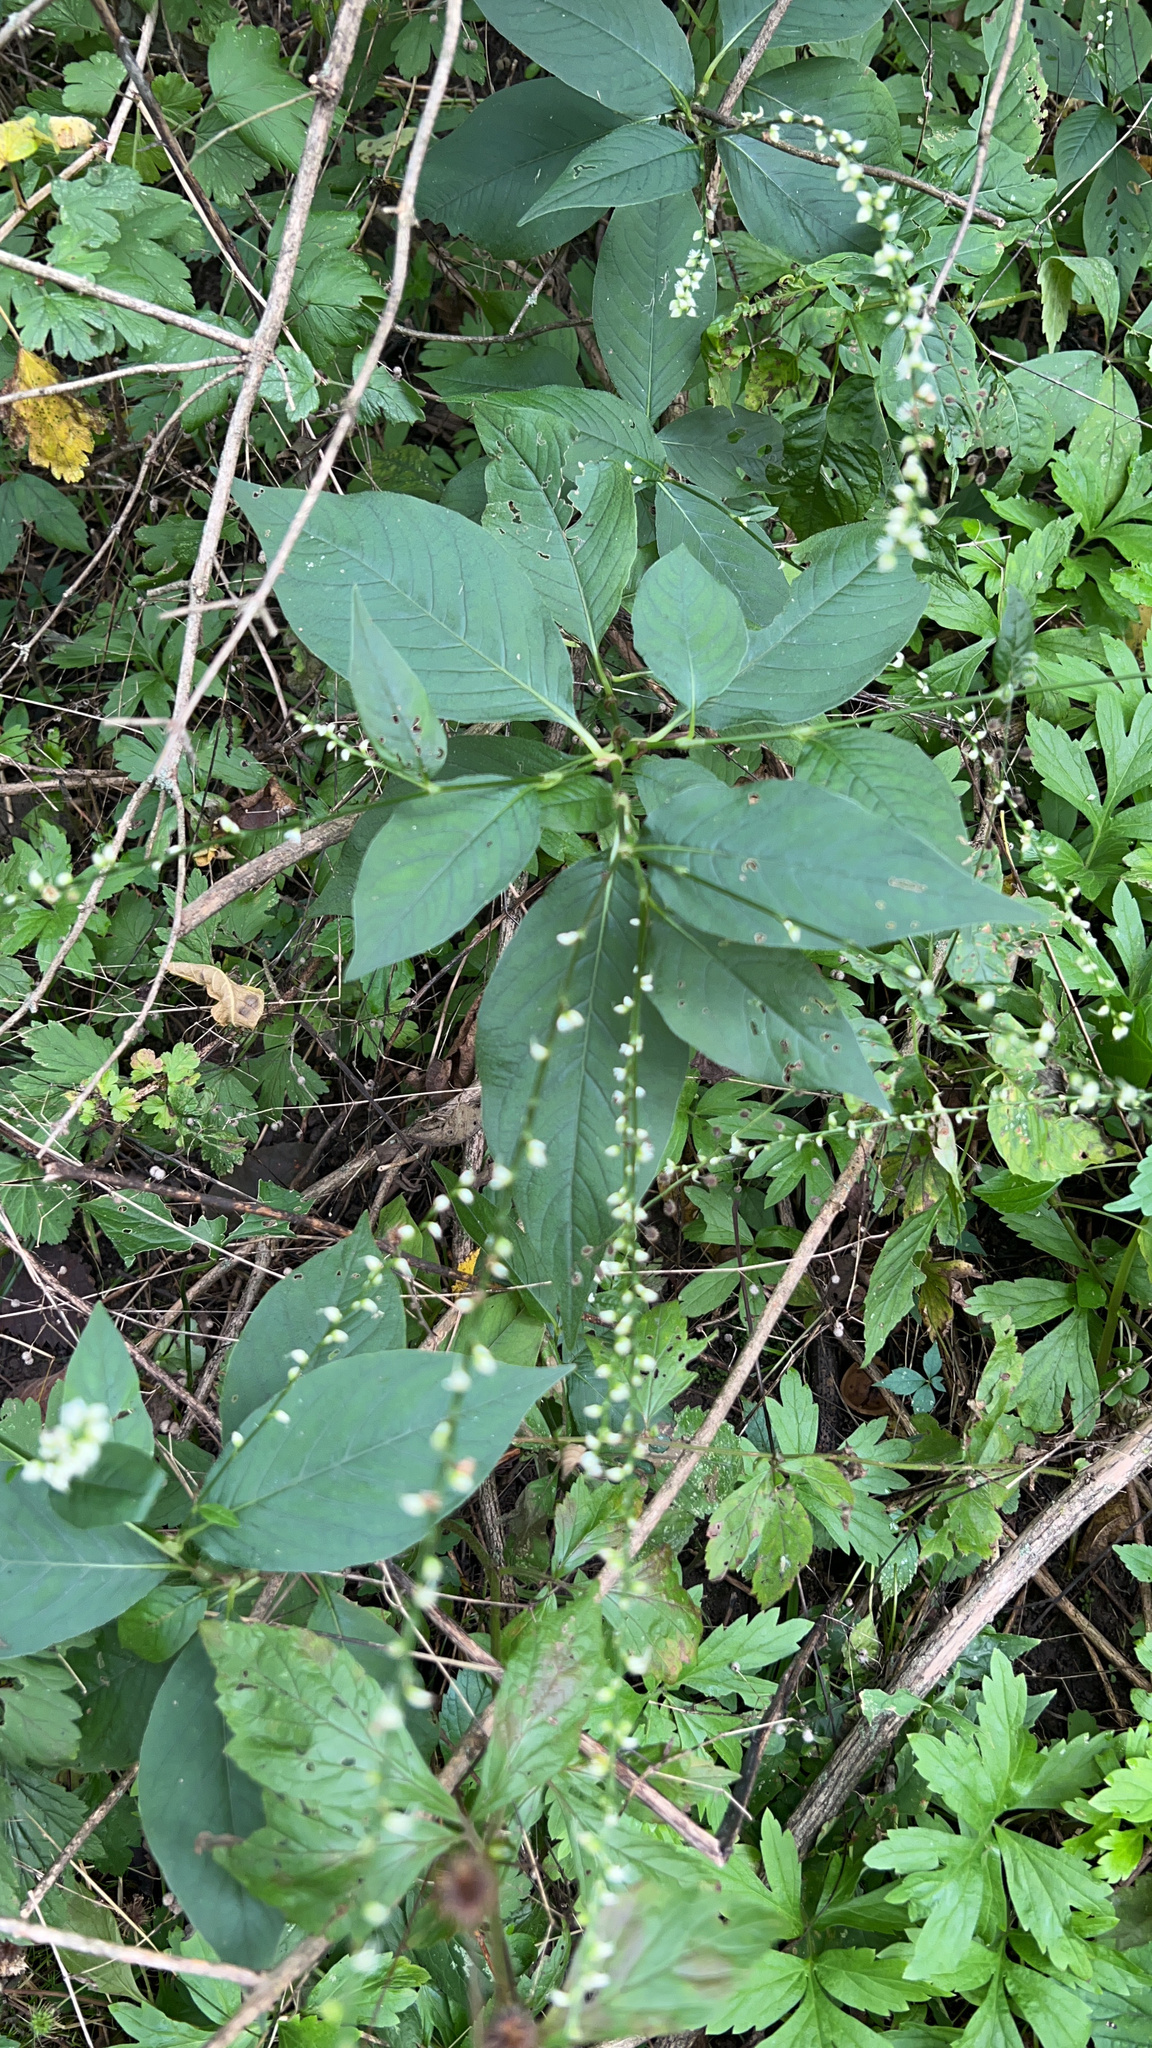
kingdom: Plantae
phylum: Tracheophyta
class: Magnoliopsida
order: Caryophyllales
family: Polygonaceae
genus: Persicaria
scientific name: Persicaria virginiana
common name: Jumpseed
